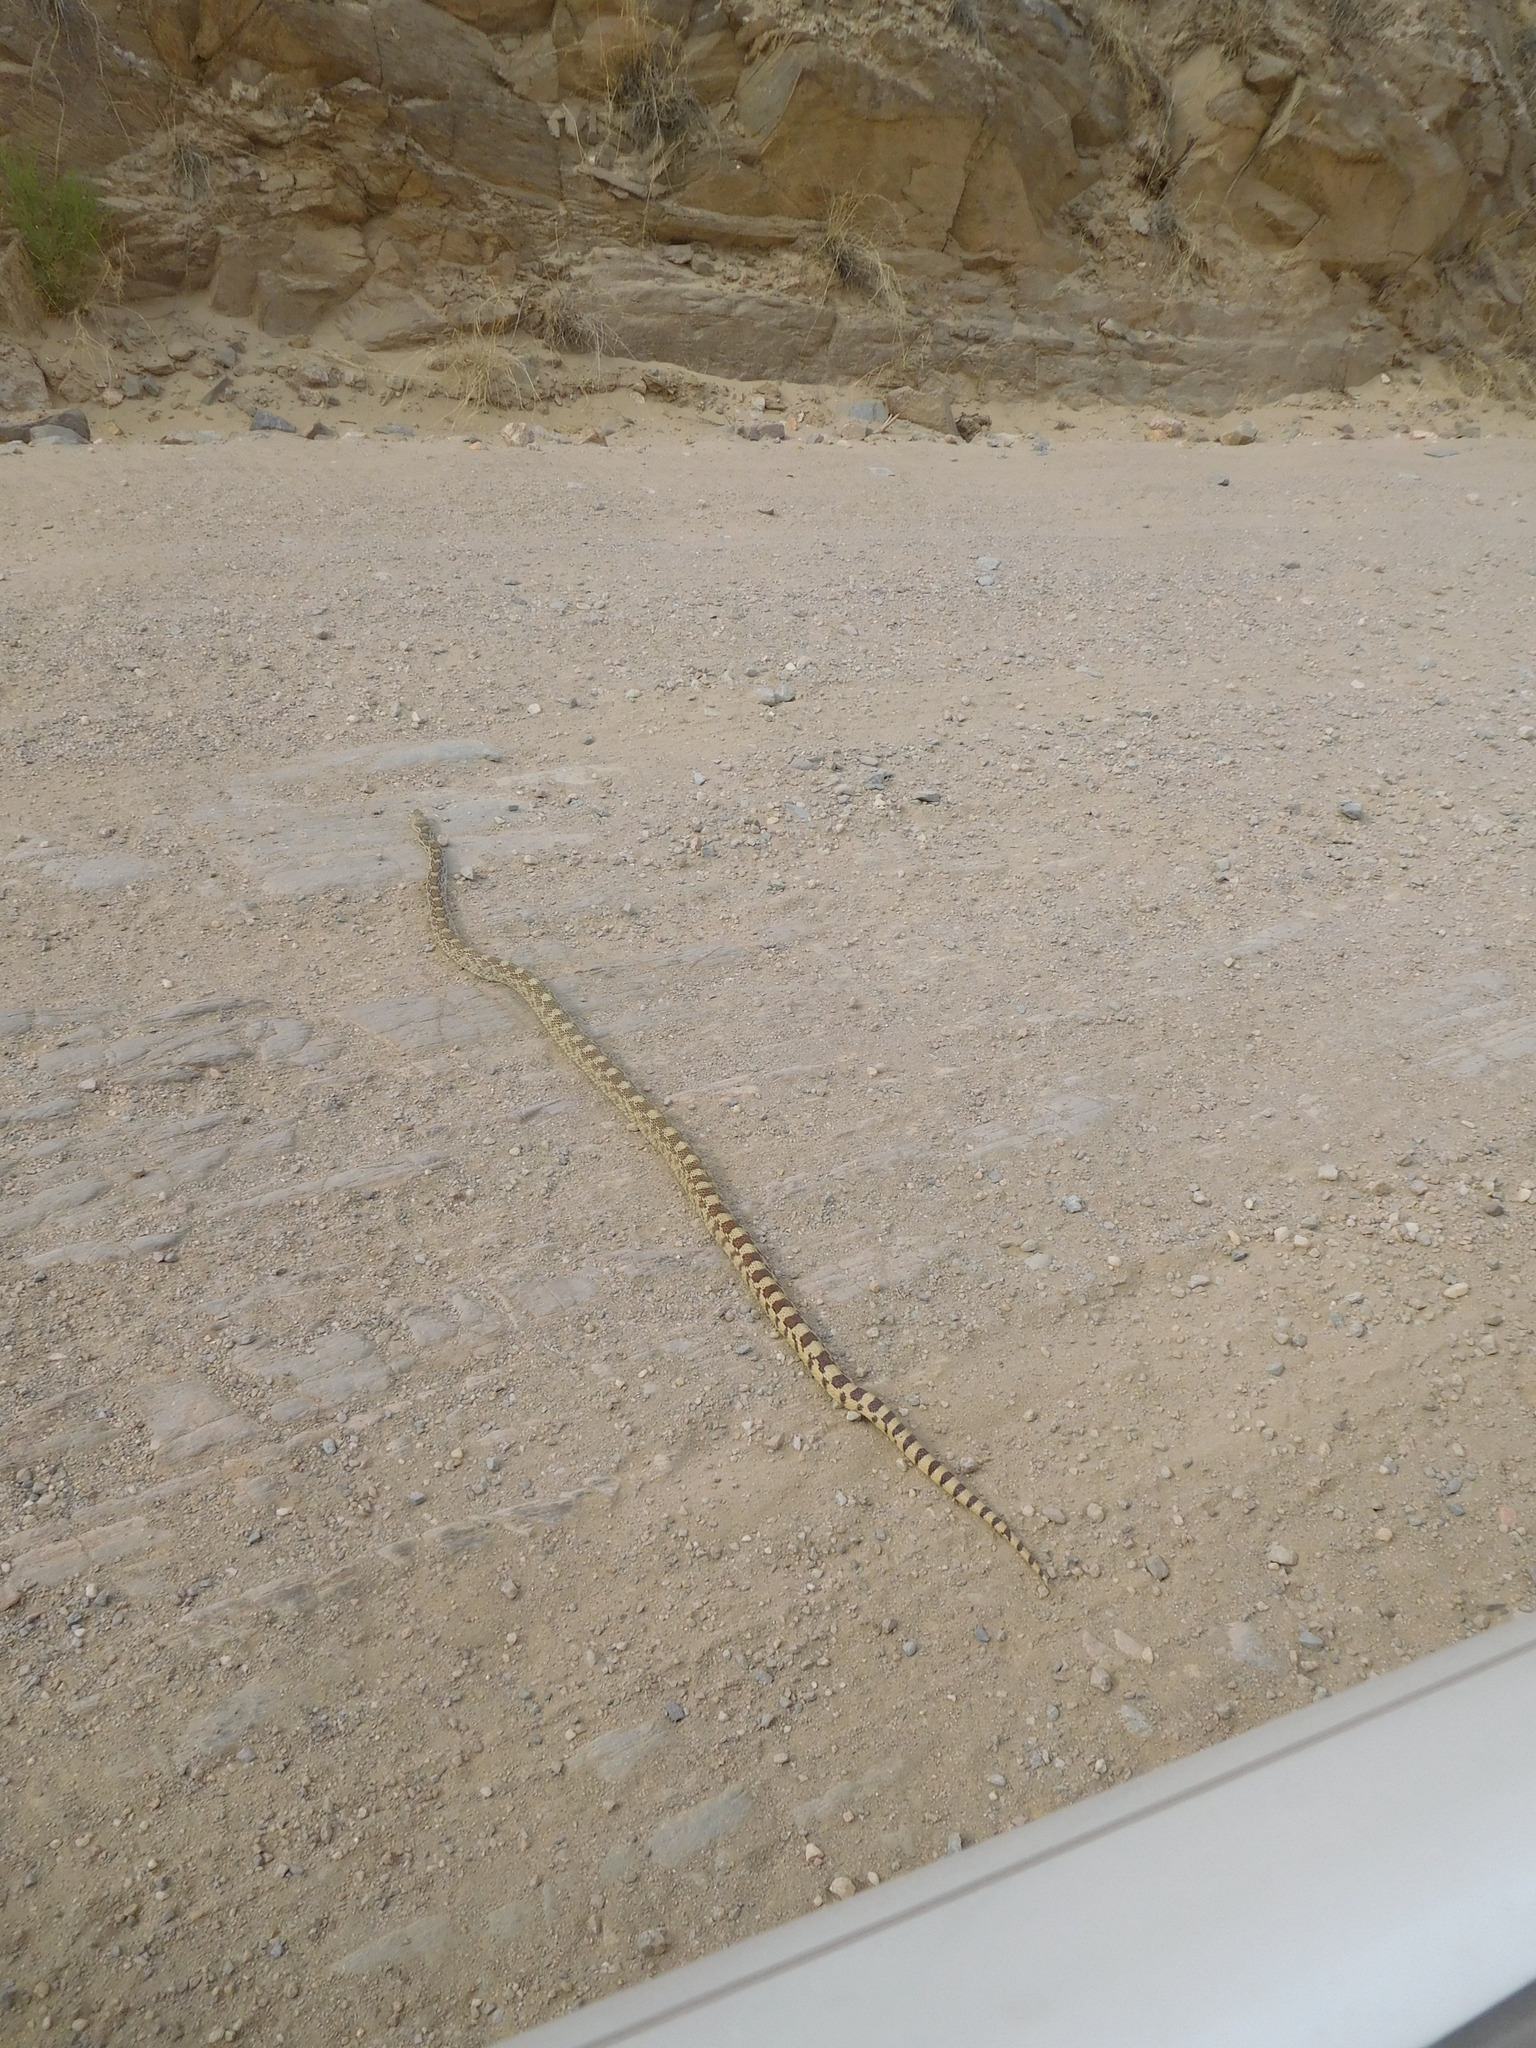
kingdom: Animalia
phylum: Chordata
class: Squamata
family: Colubridae
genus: Pituophis
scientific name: Pituophis catenifer
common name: Gopher snake
